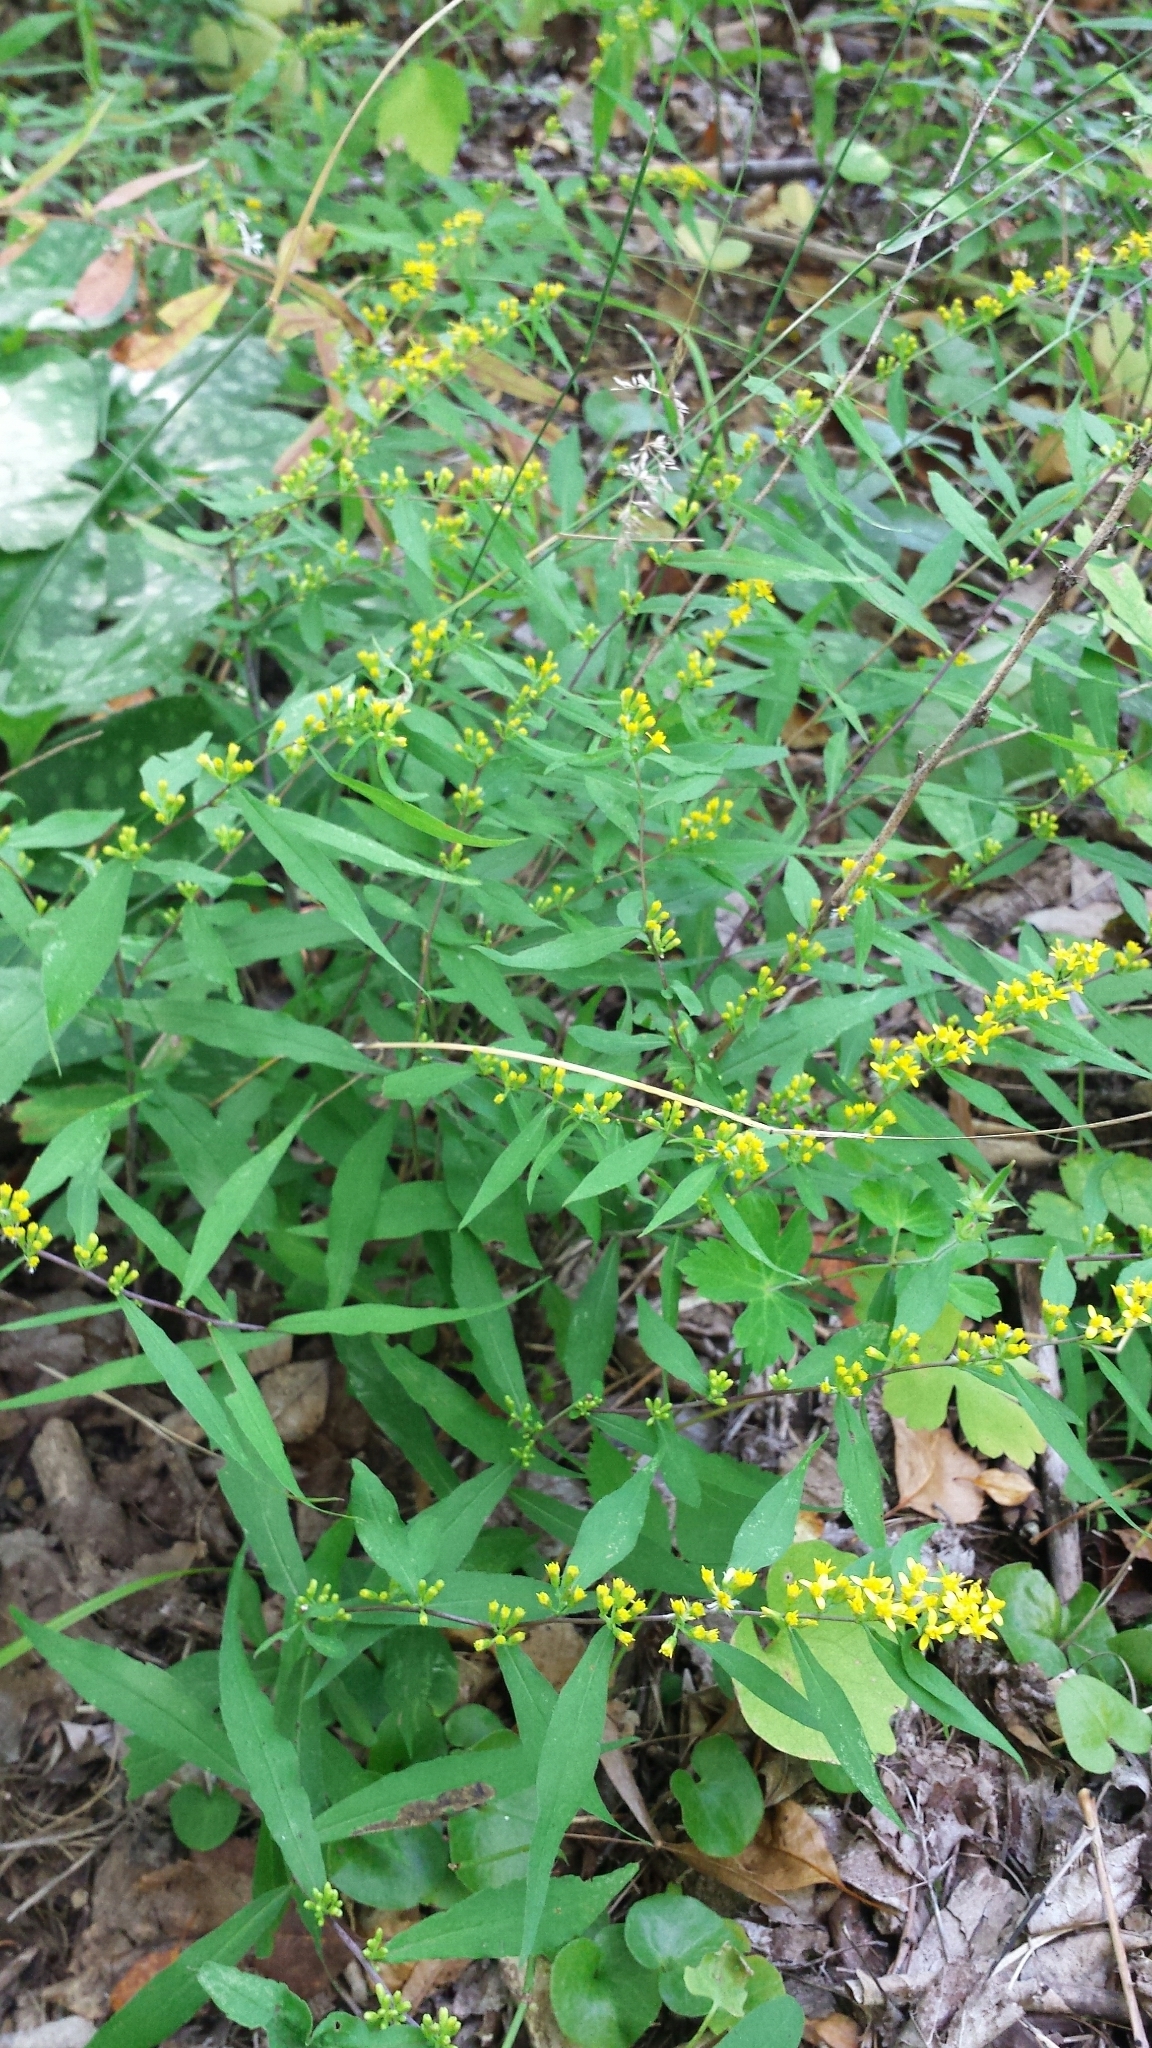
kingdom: Plantae
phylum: Tracheophyta
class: Magnoliopsida
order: Asterales
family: Asteraceae
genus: Solidago
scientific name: Solidago caesia
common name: Woodland goldenrod
